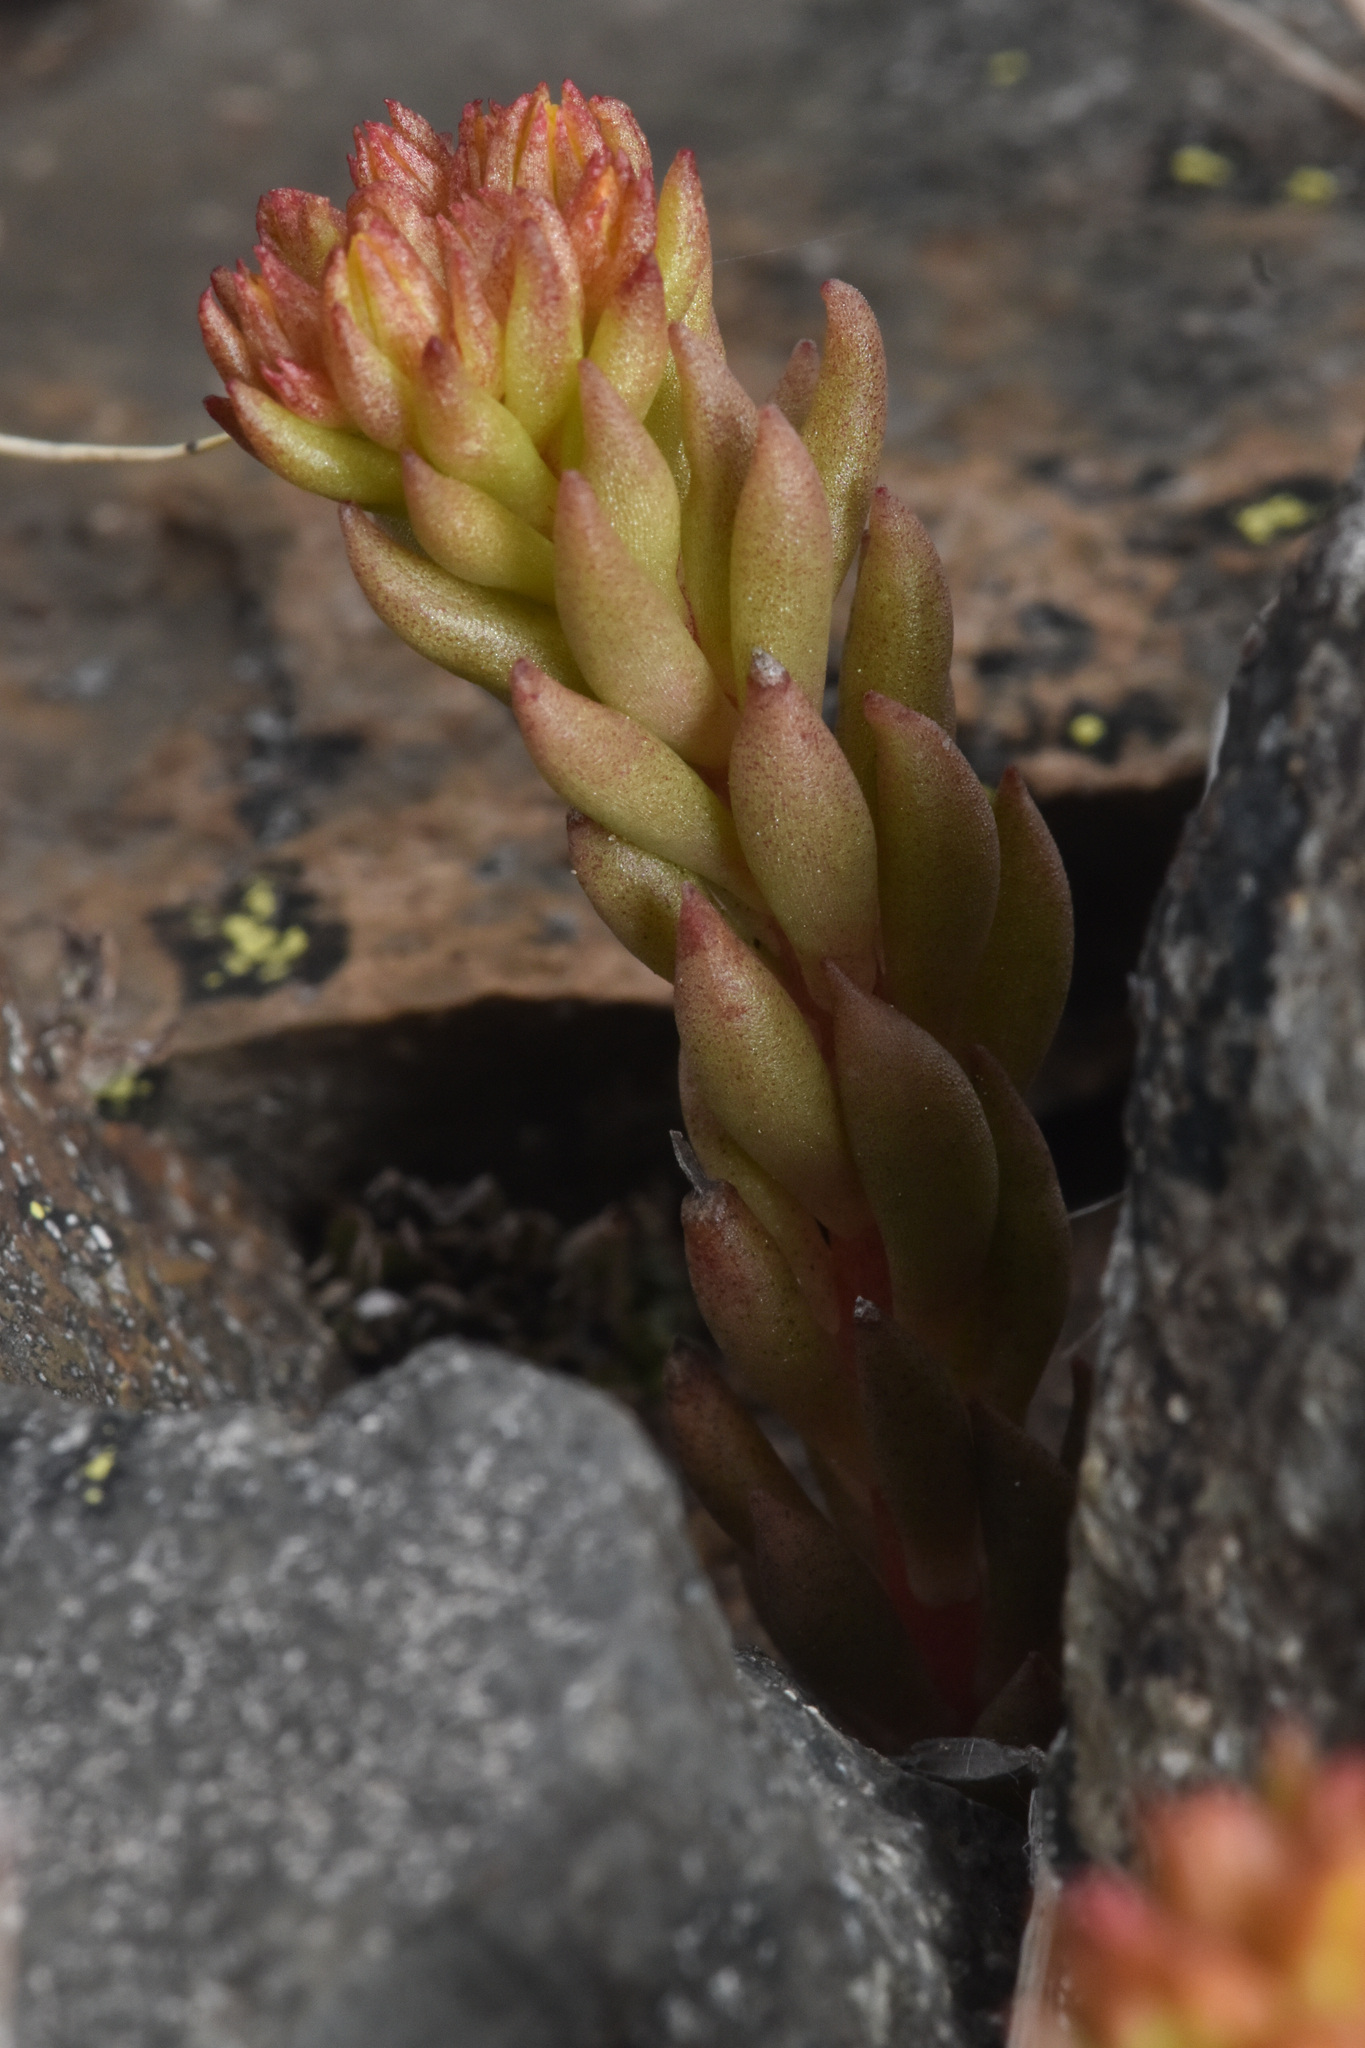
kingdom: Plantae
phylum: Tracheophyta
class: Magnoliopsida
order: Saxifragales
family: Crassulaceae
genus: Sedum
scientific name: Sedum lanceolatum
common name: Common stonecrop
